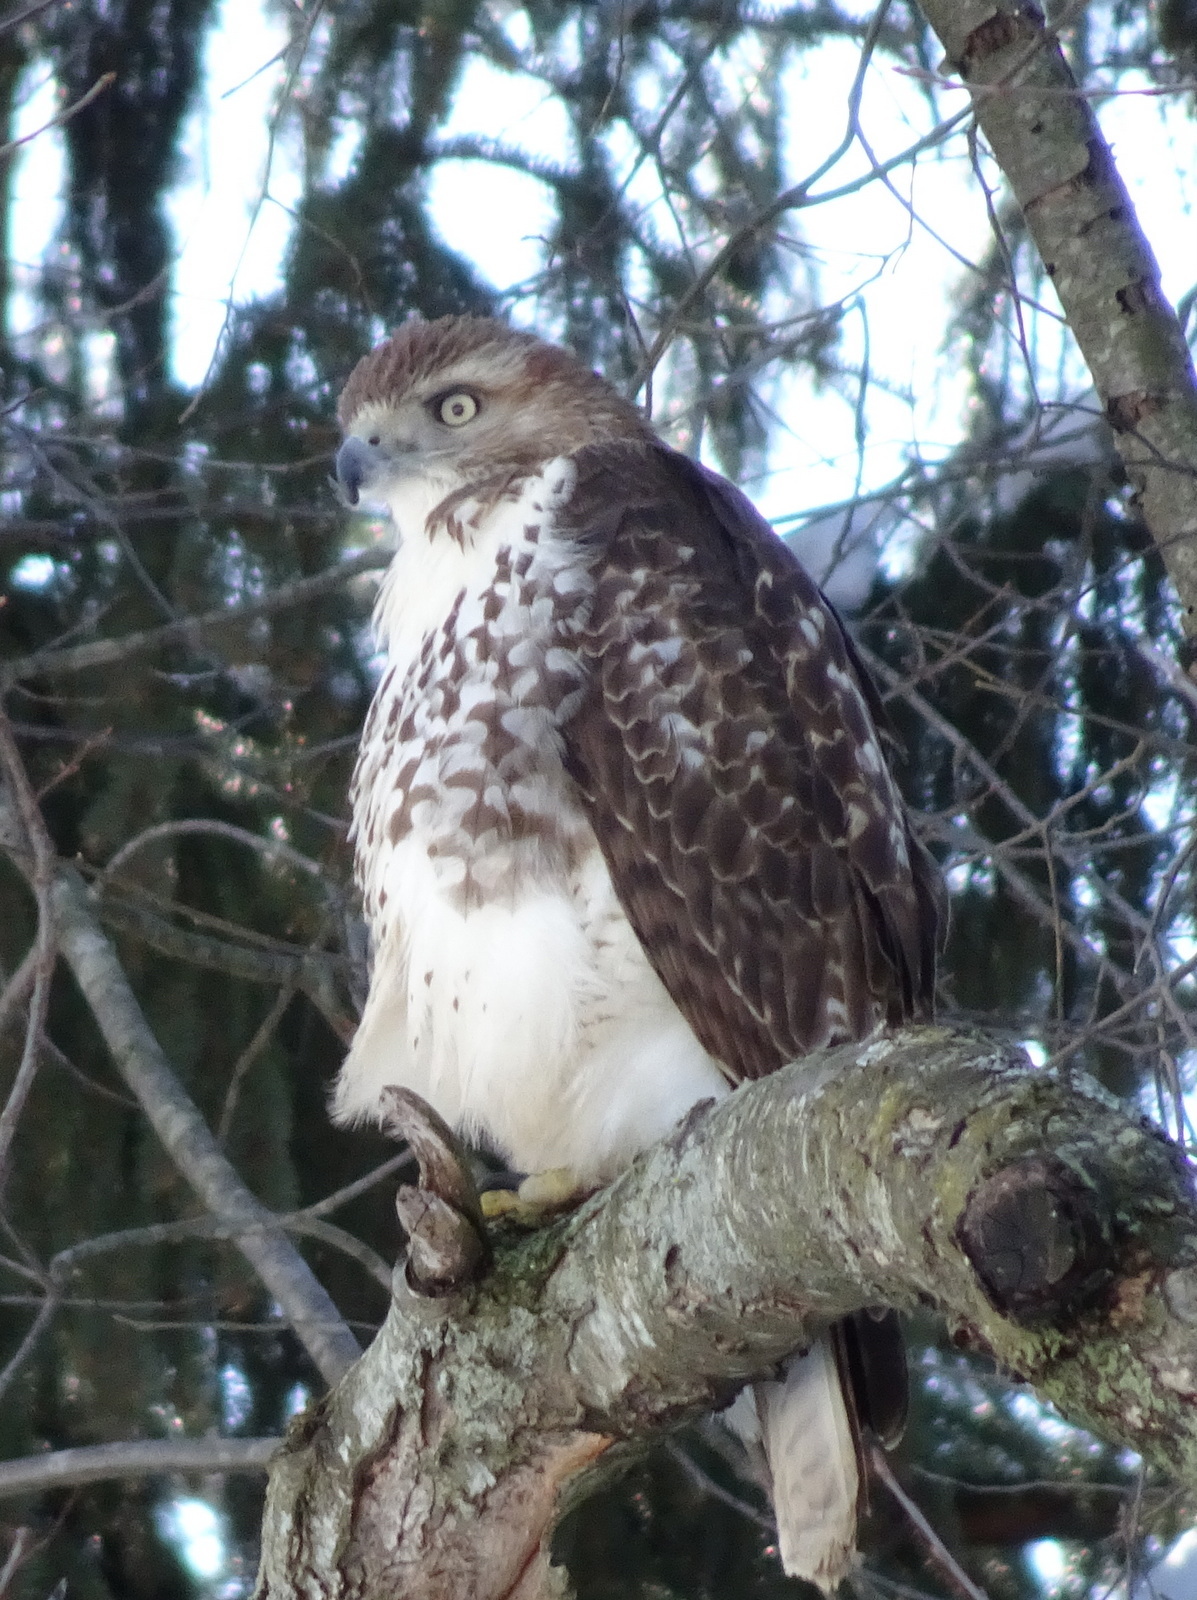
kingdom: Animalia
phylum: Chordata
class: Aves
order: Accipitriformes
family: Accipitridae
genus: Buteo
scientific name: Buteo jamaicensis
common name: Red-tailed hawk
